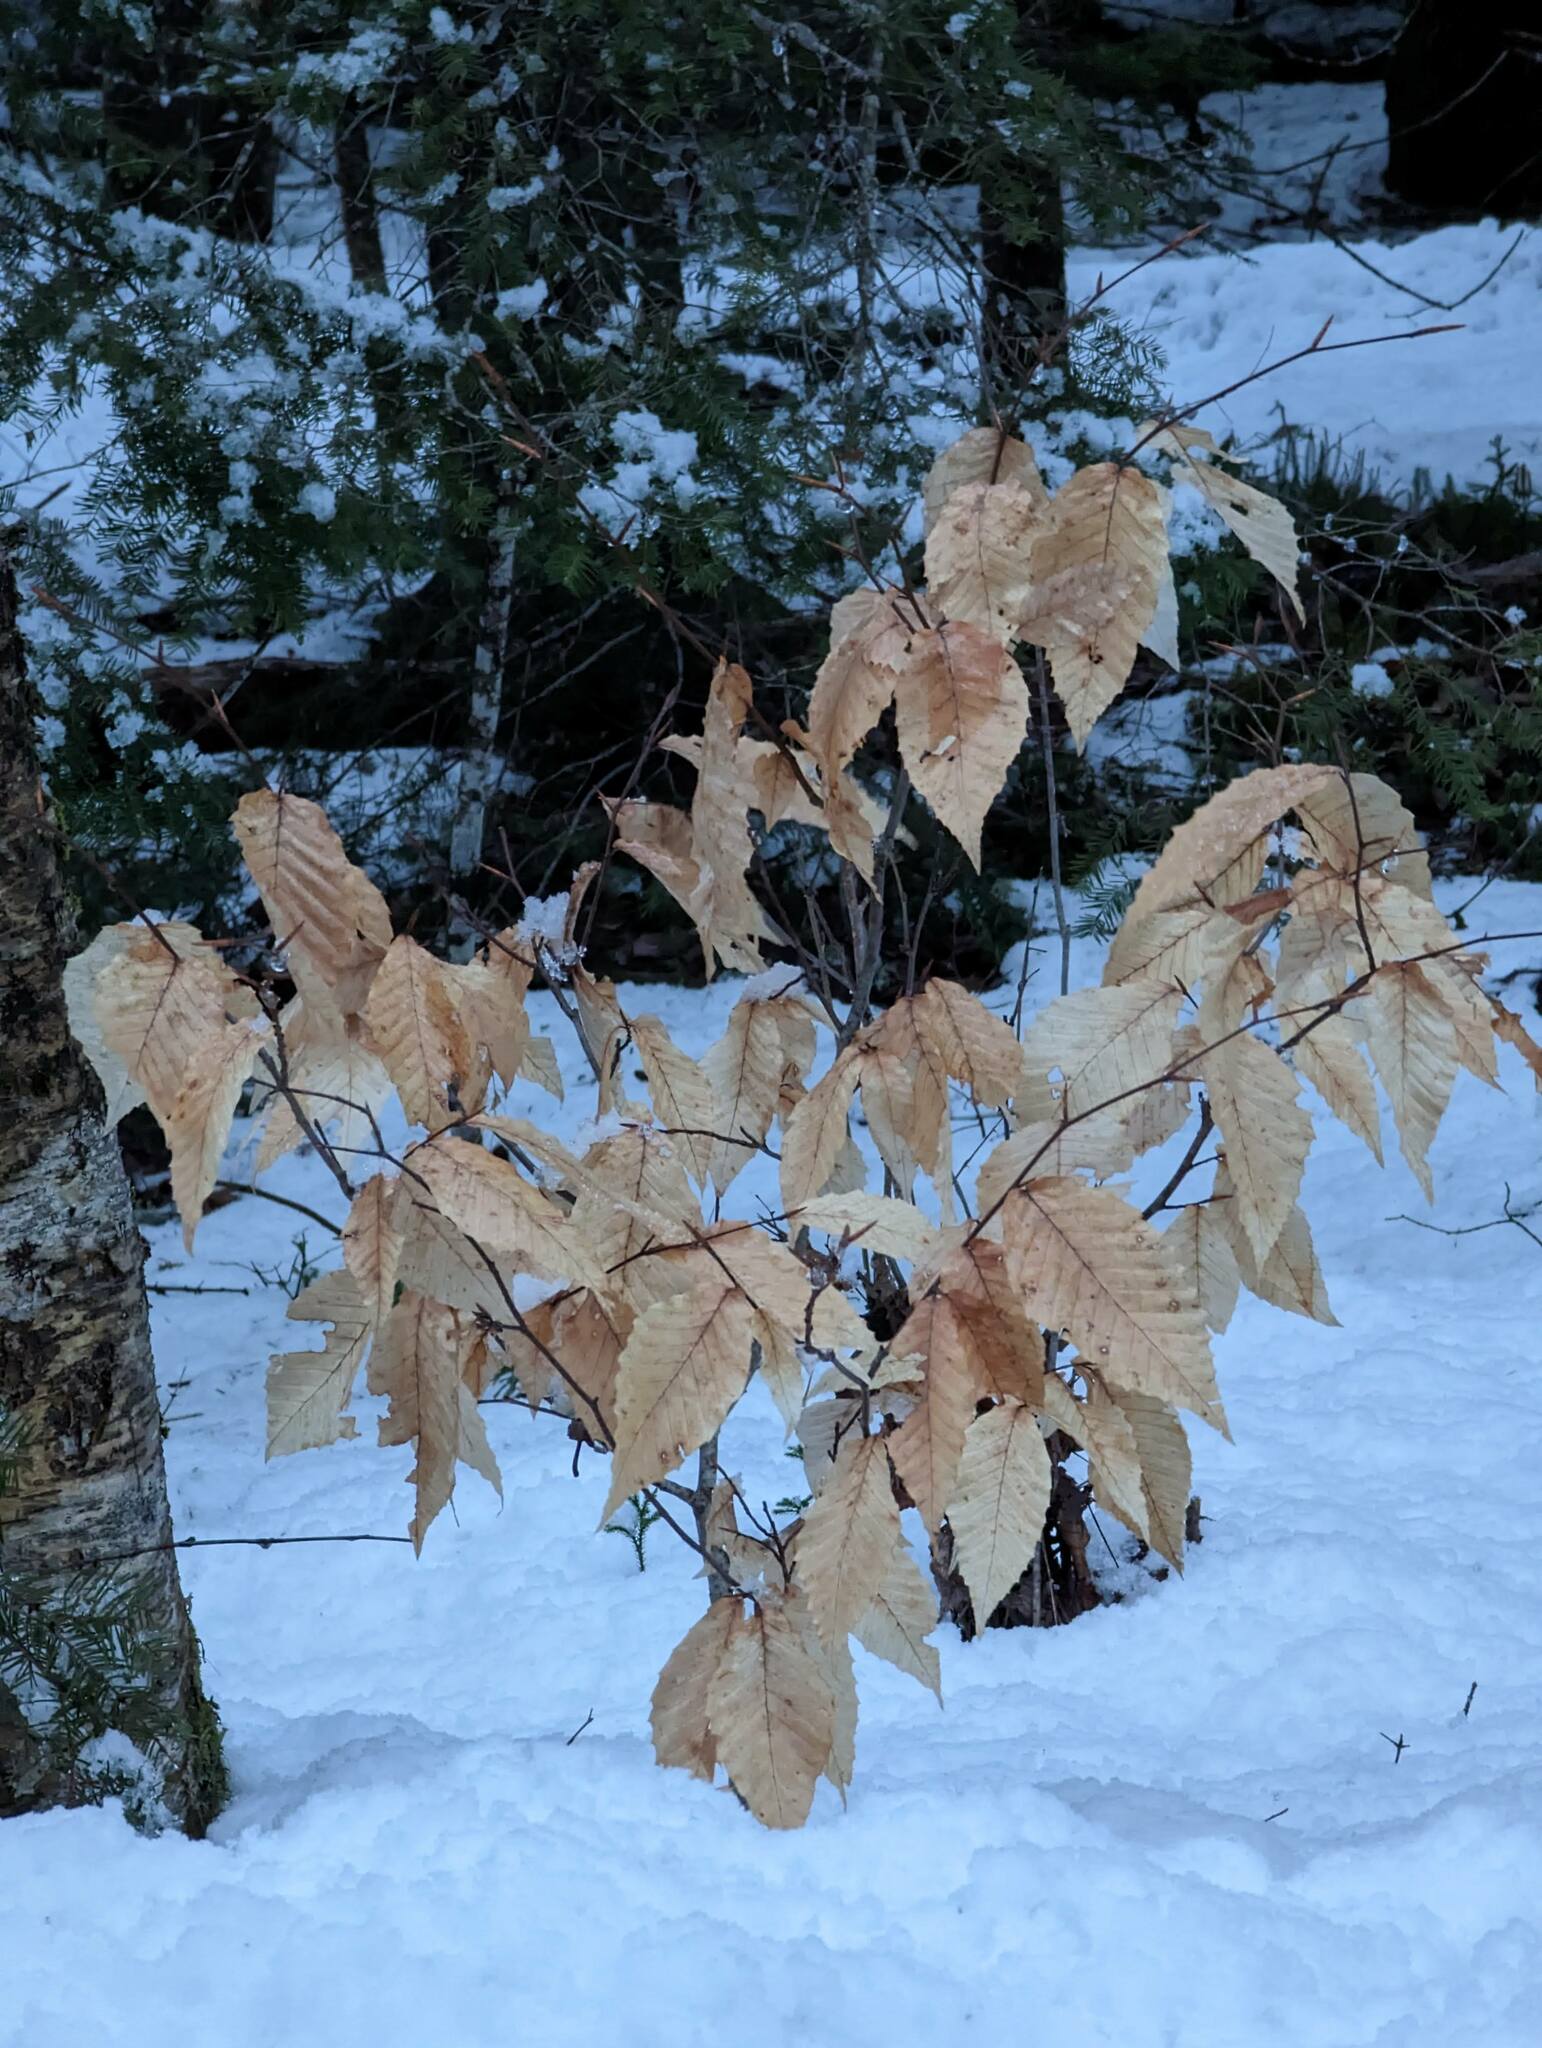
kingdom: Plantae
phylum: Tracheophyta
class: Magnoliopsida
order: Fagales
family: Fagaceae
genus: Fagus
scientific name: Fagus grandifolia
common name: American beech
